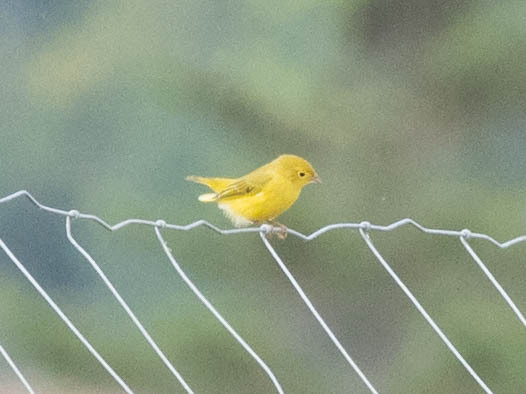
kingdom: Animalia
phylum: Chordata
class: Aves
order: Passeriformes
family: Parulidae
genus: Setophaga
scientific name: Setophaga petechia
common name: Yellow warbler
